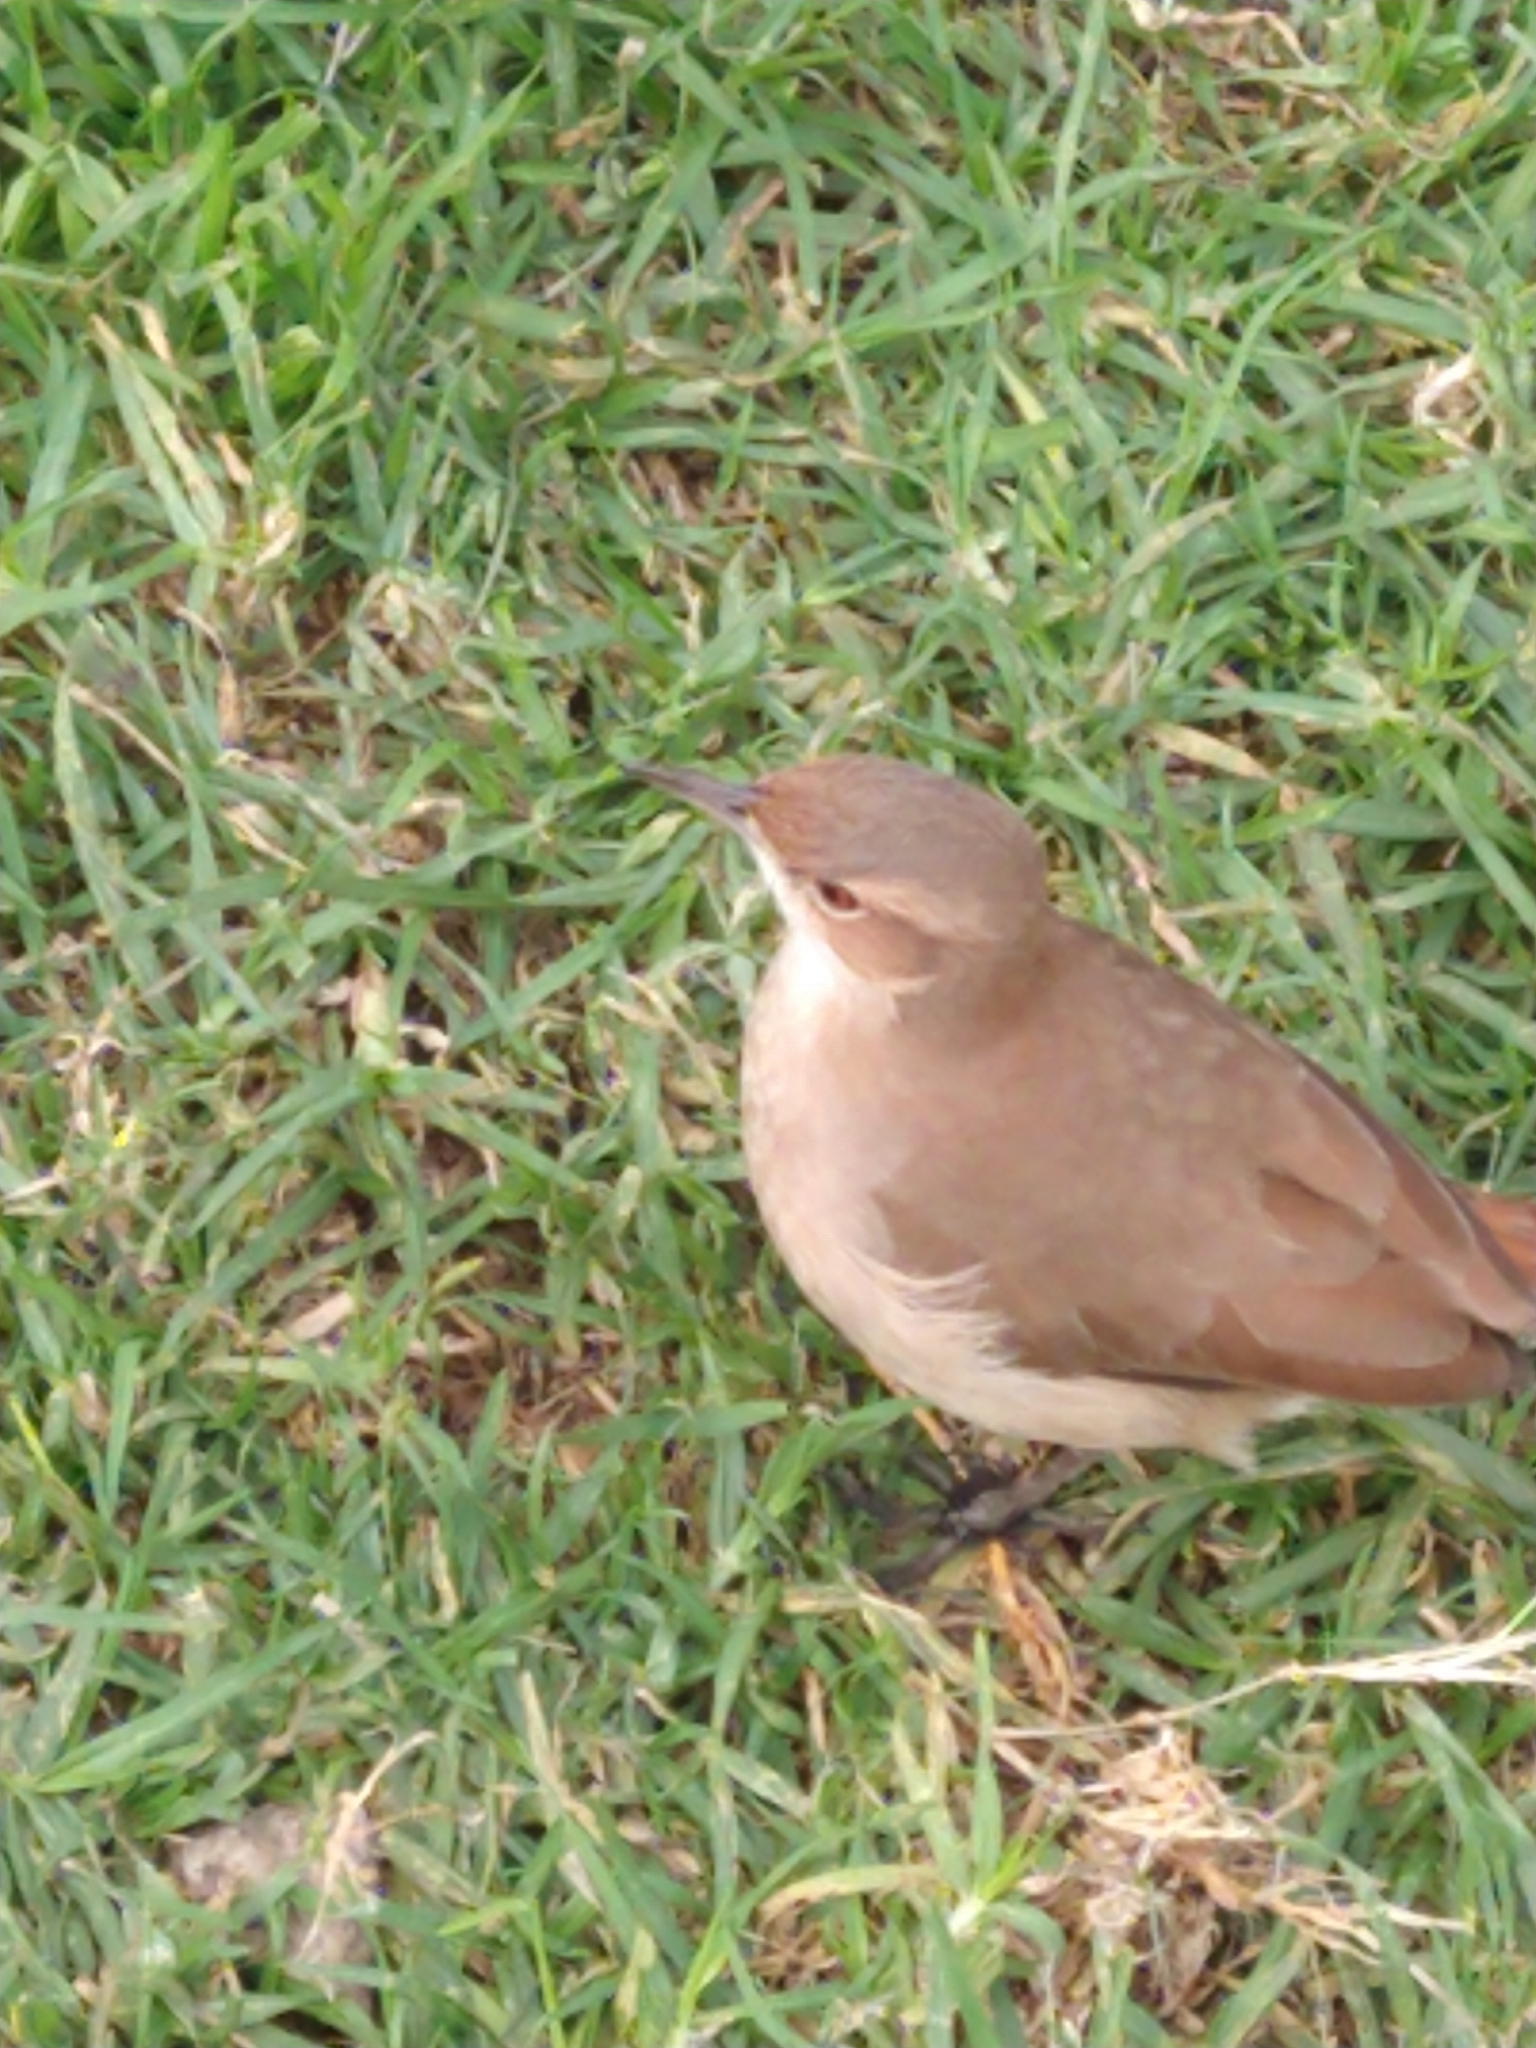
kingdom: Animalia
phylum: Chordata
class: Aves
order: Passeriformes
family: Furnariidae
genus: Furnarius
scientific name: Furnarius rufus
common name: Rufous hornero
